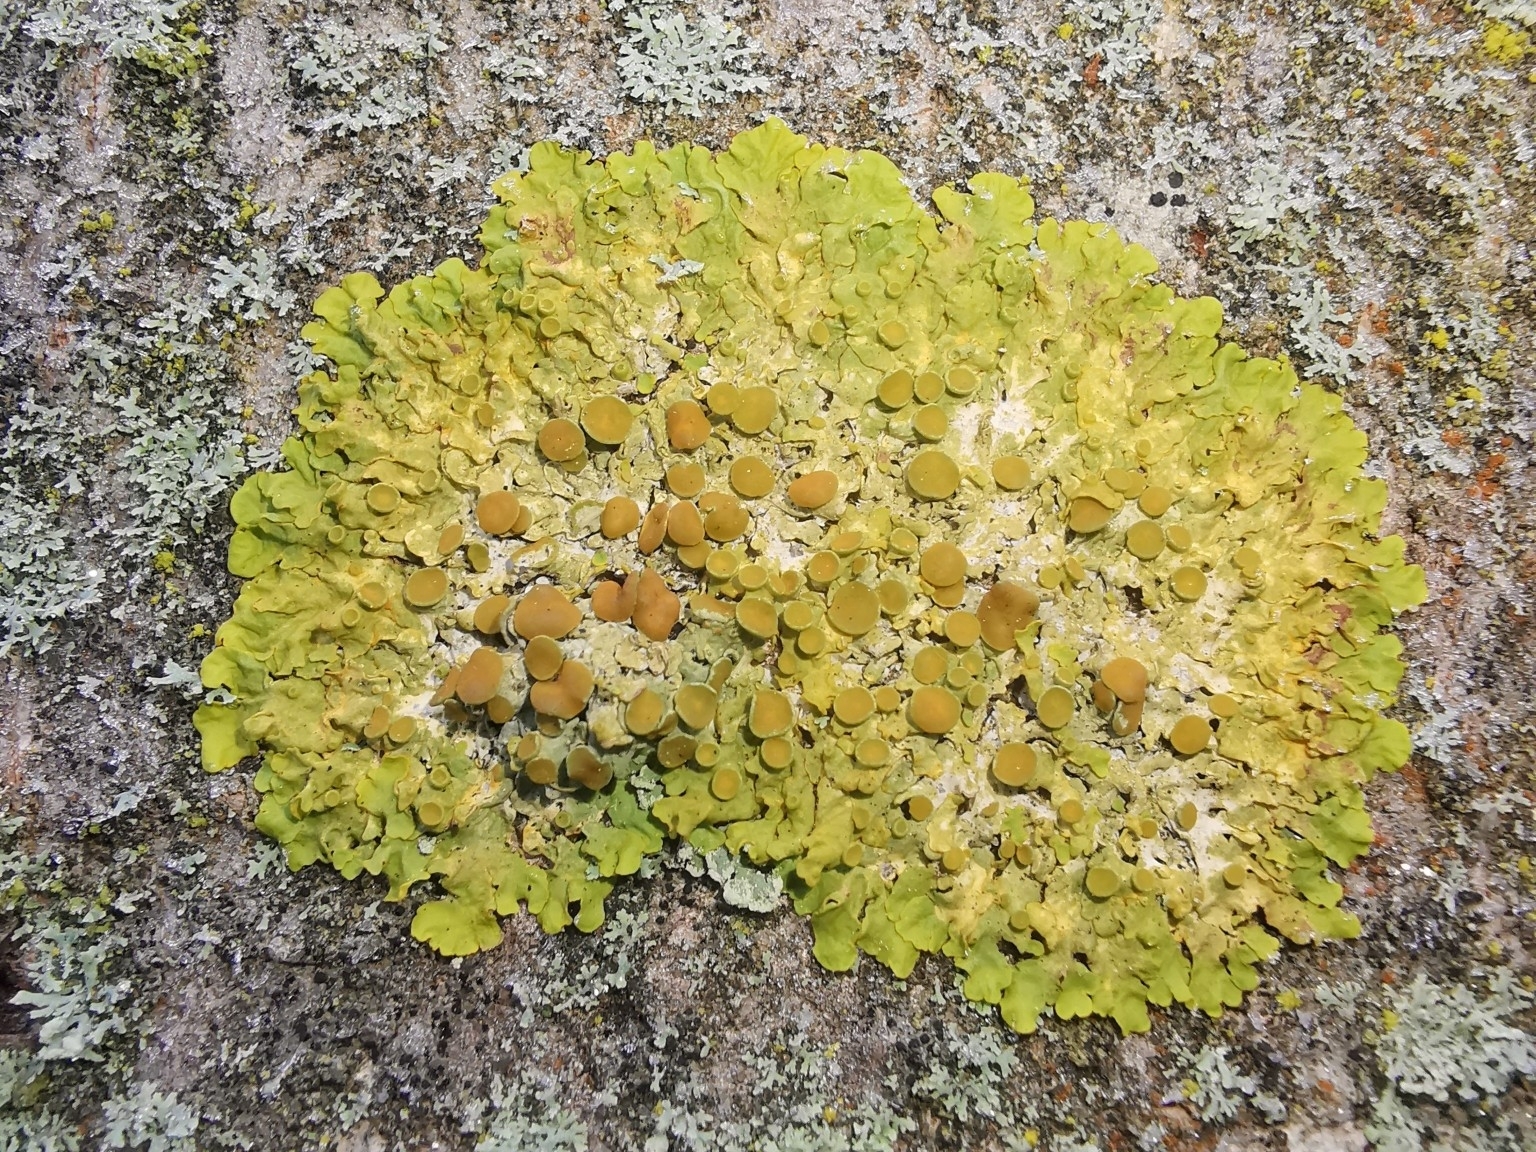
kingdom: Fungi
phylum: Ascomycota
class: Lecanoromycetes
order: Teloschistales
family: Teloschistaceae
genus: Xanthoria
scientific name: Xanthoria parietina
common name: Common orange lichen
